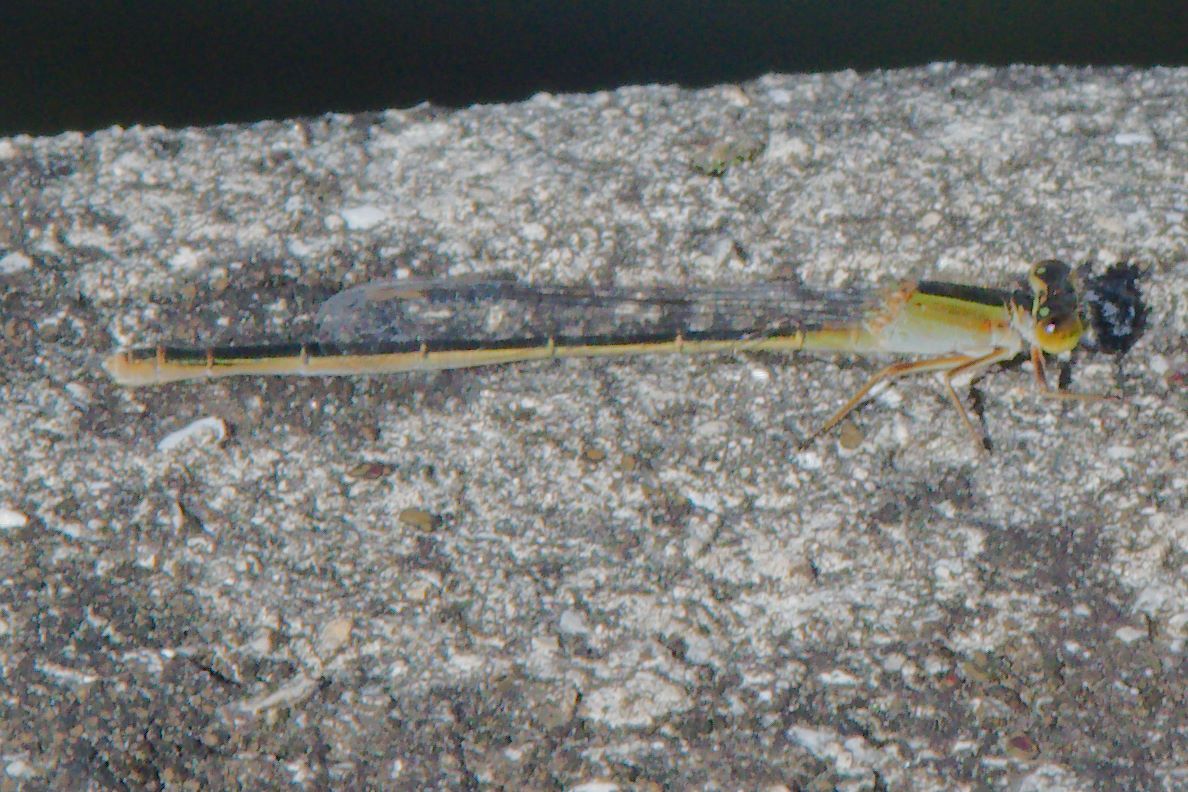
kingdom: Animalia
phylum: Arthropoda
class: Insecta
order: Odonata
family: Coenagrionidae
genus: Ischnura
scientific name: Ischnura ramburii
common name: Rambur's forktail
